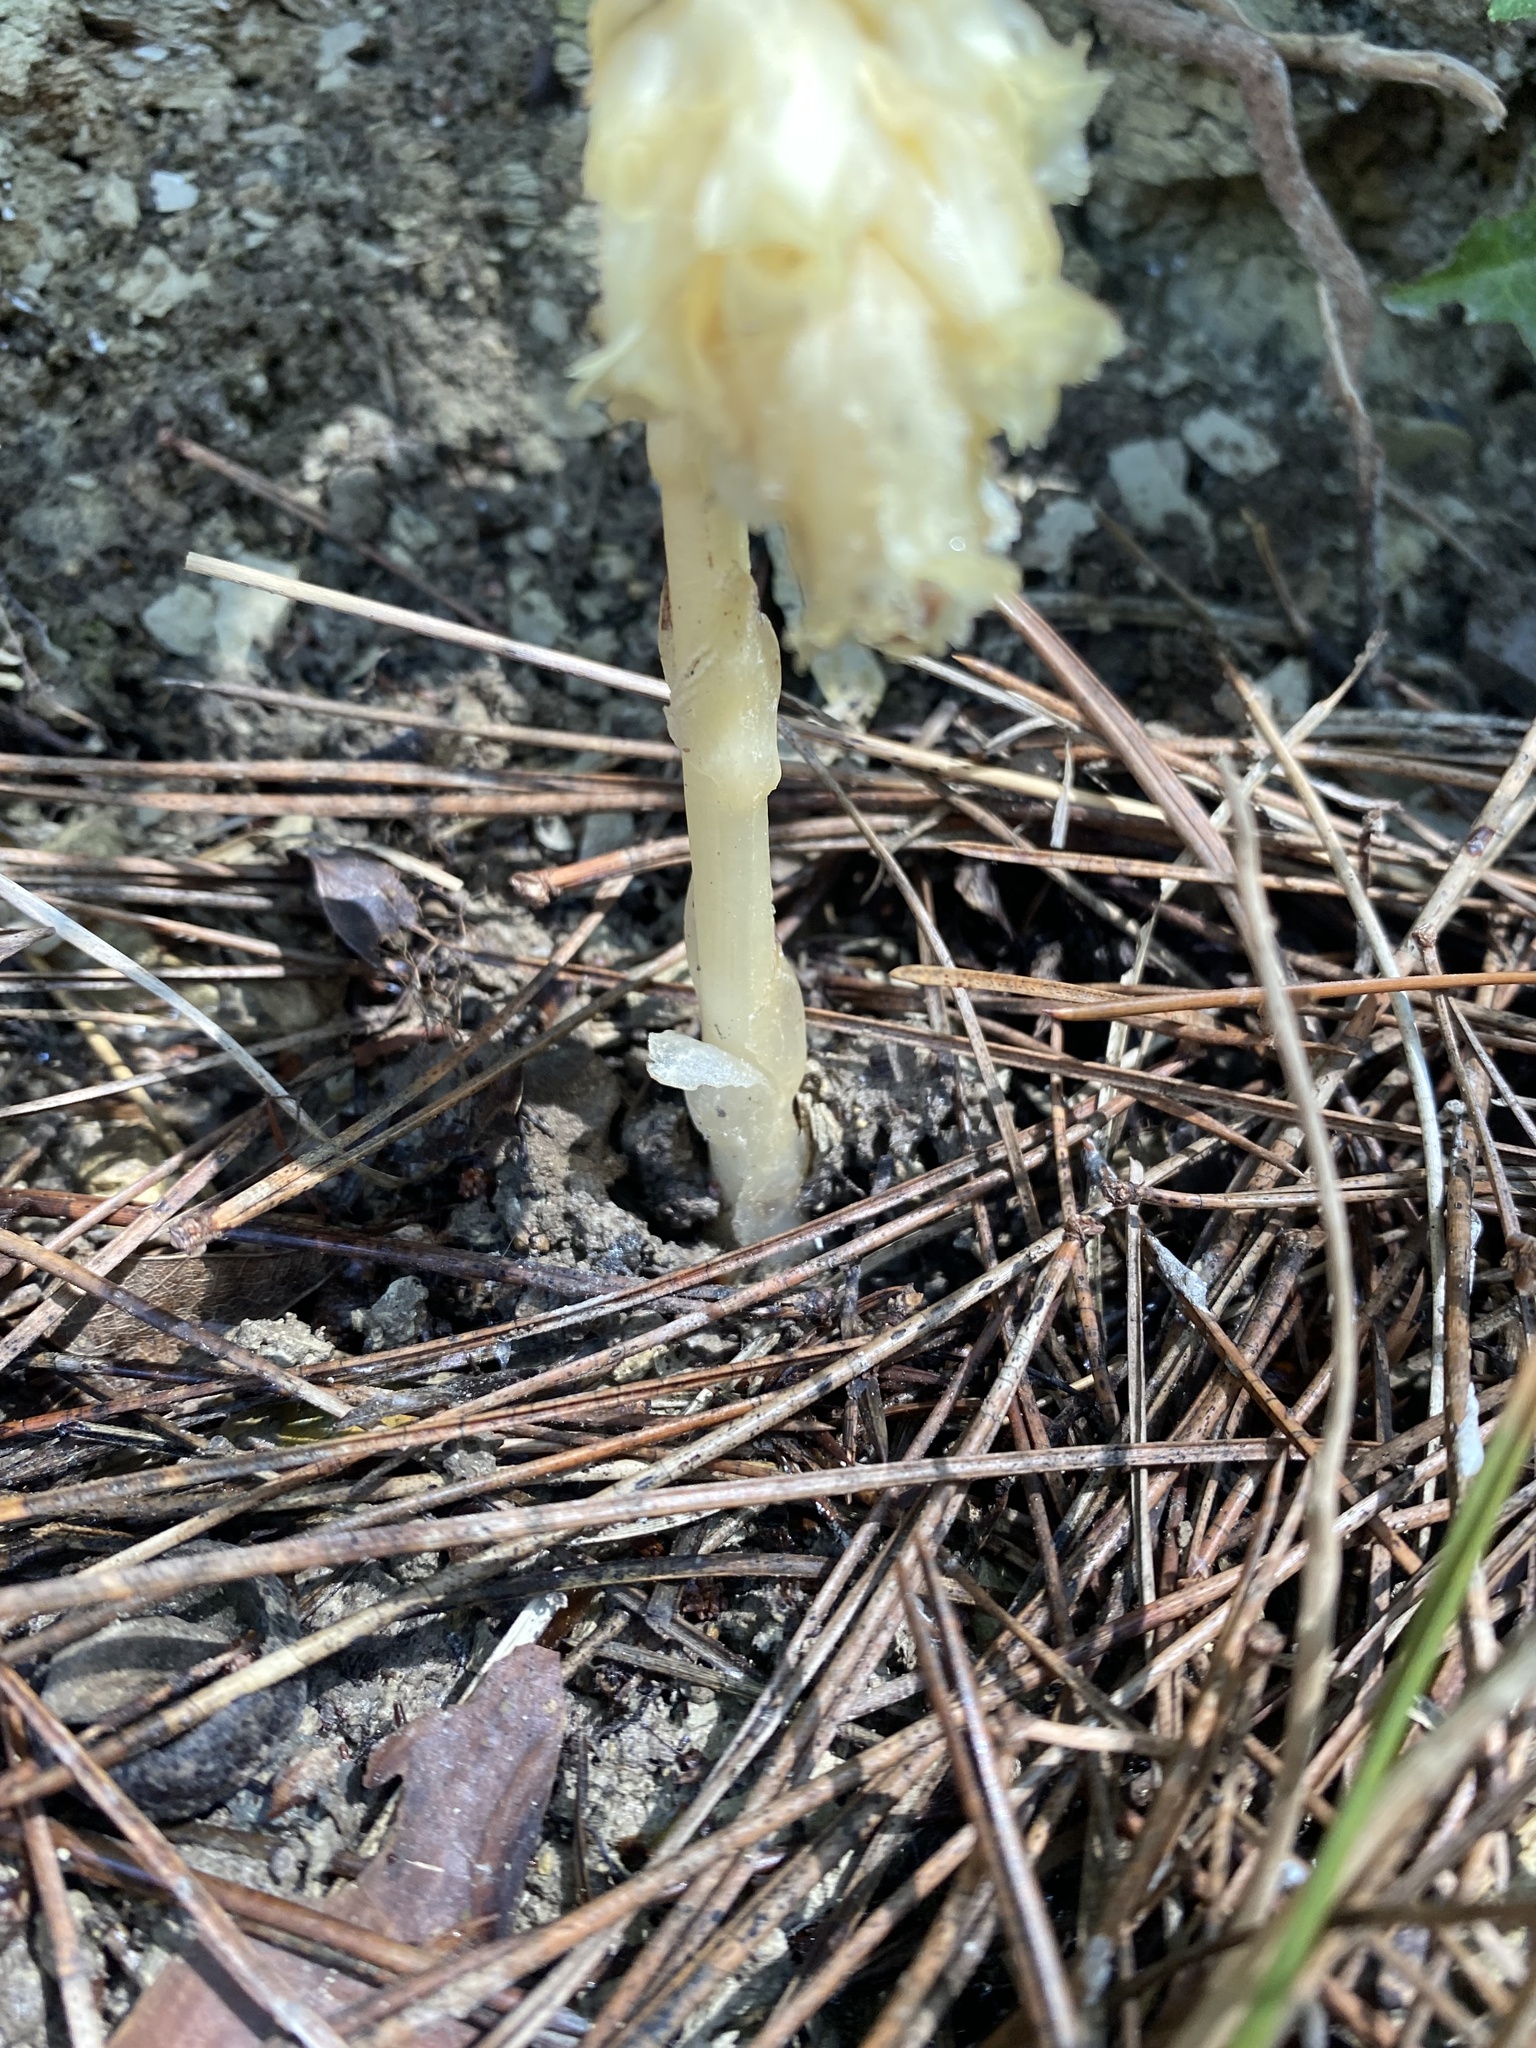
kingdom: Plantae
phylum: Tracheophyta
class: Magnoliopsida
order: Ericales
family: Ericaceae
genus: Hypopitys
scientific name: Hypopitys monotropa
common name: Yellow bird's-nest
